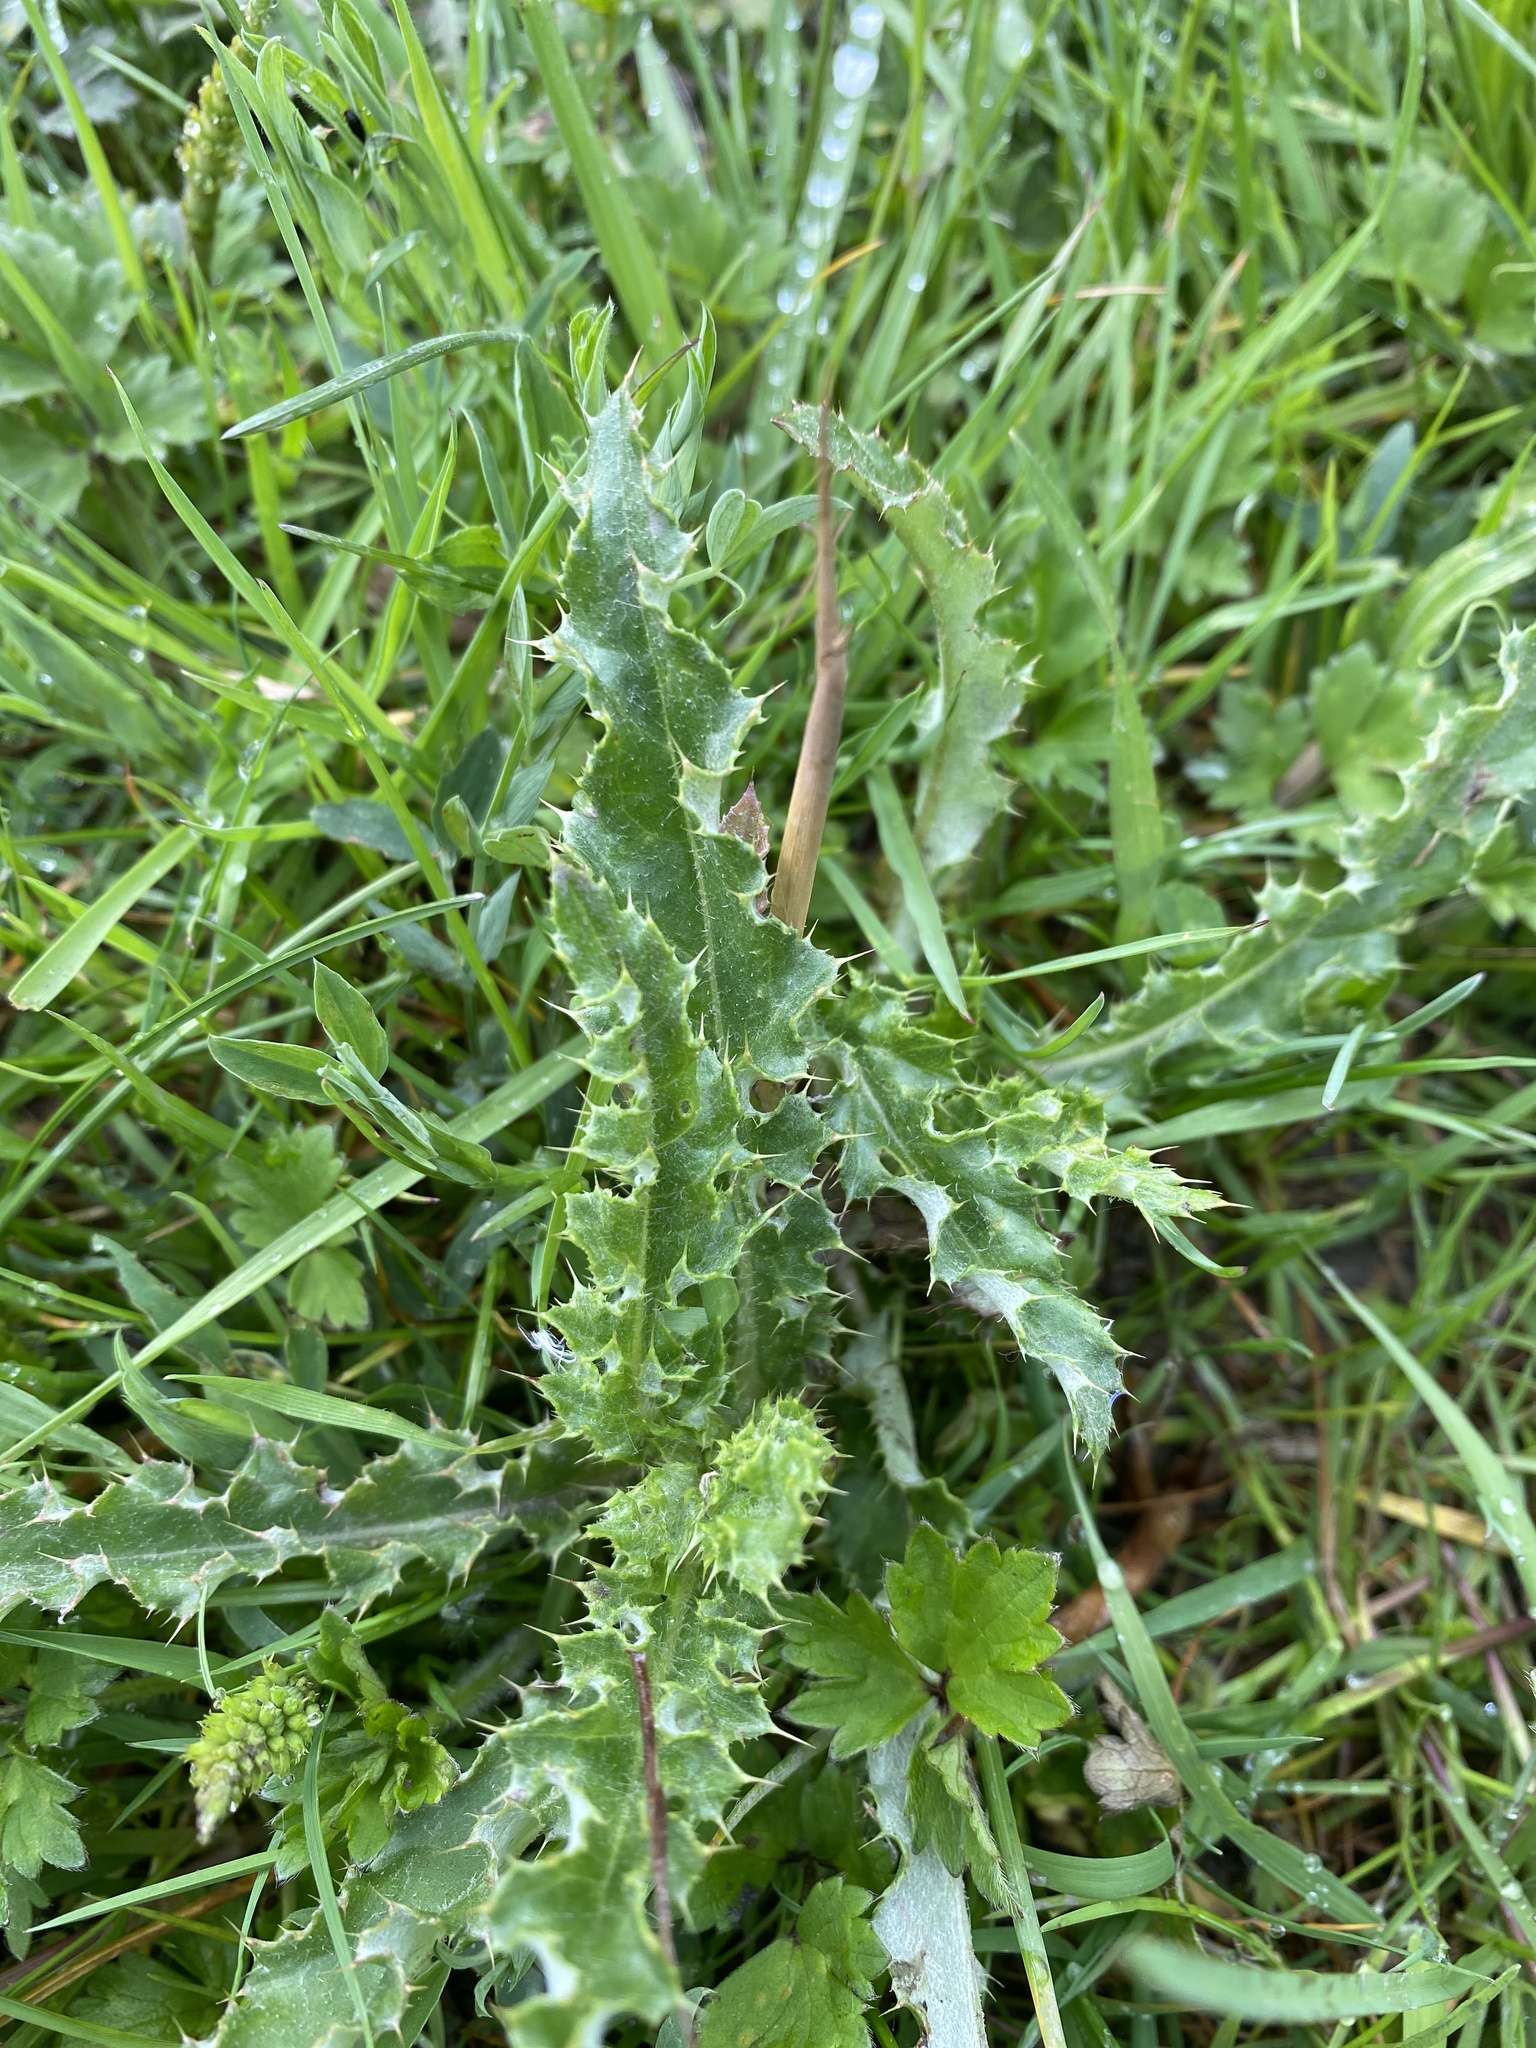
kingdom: Plantae
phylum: Tracheophyta
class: Magnoliopsida
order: Asterales
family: Asteraceae
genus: Cirsium
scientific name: Cirsium arvense
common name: Creeping thistle
